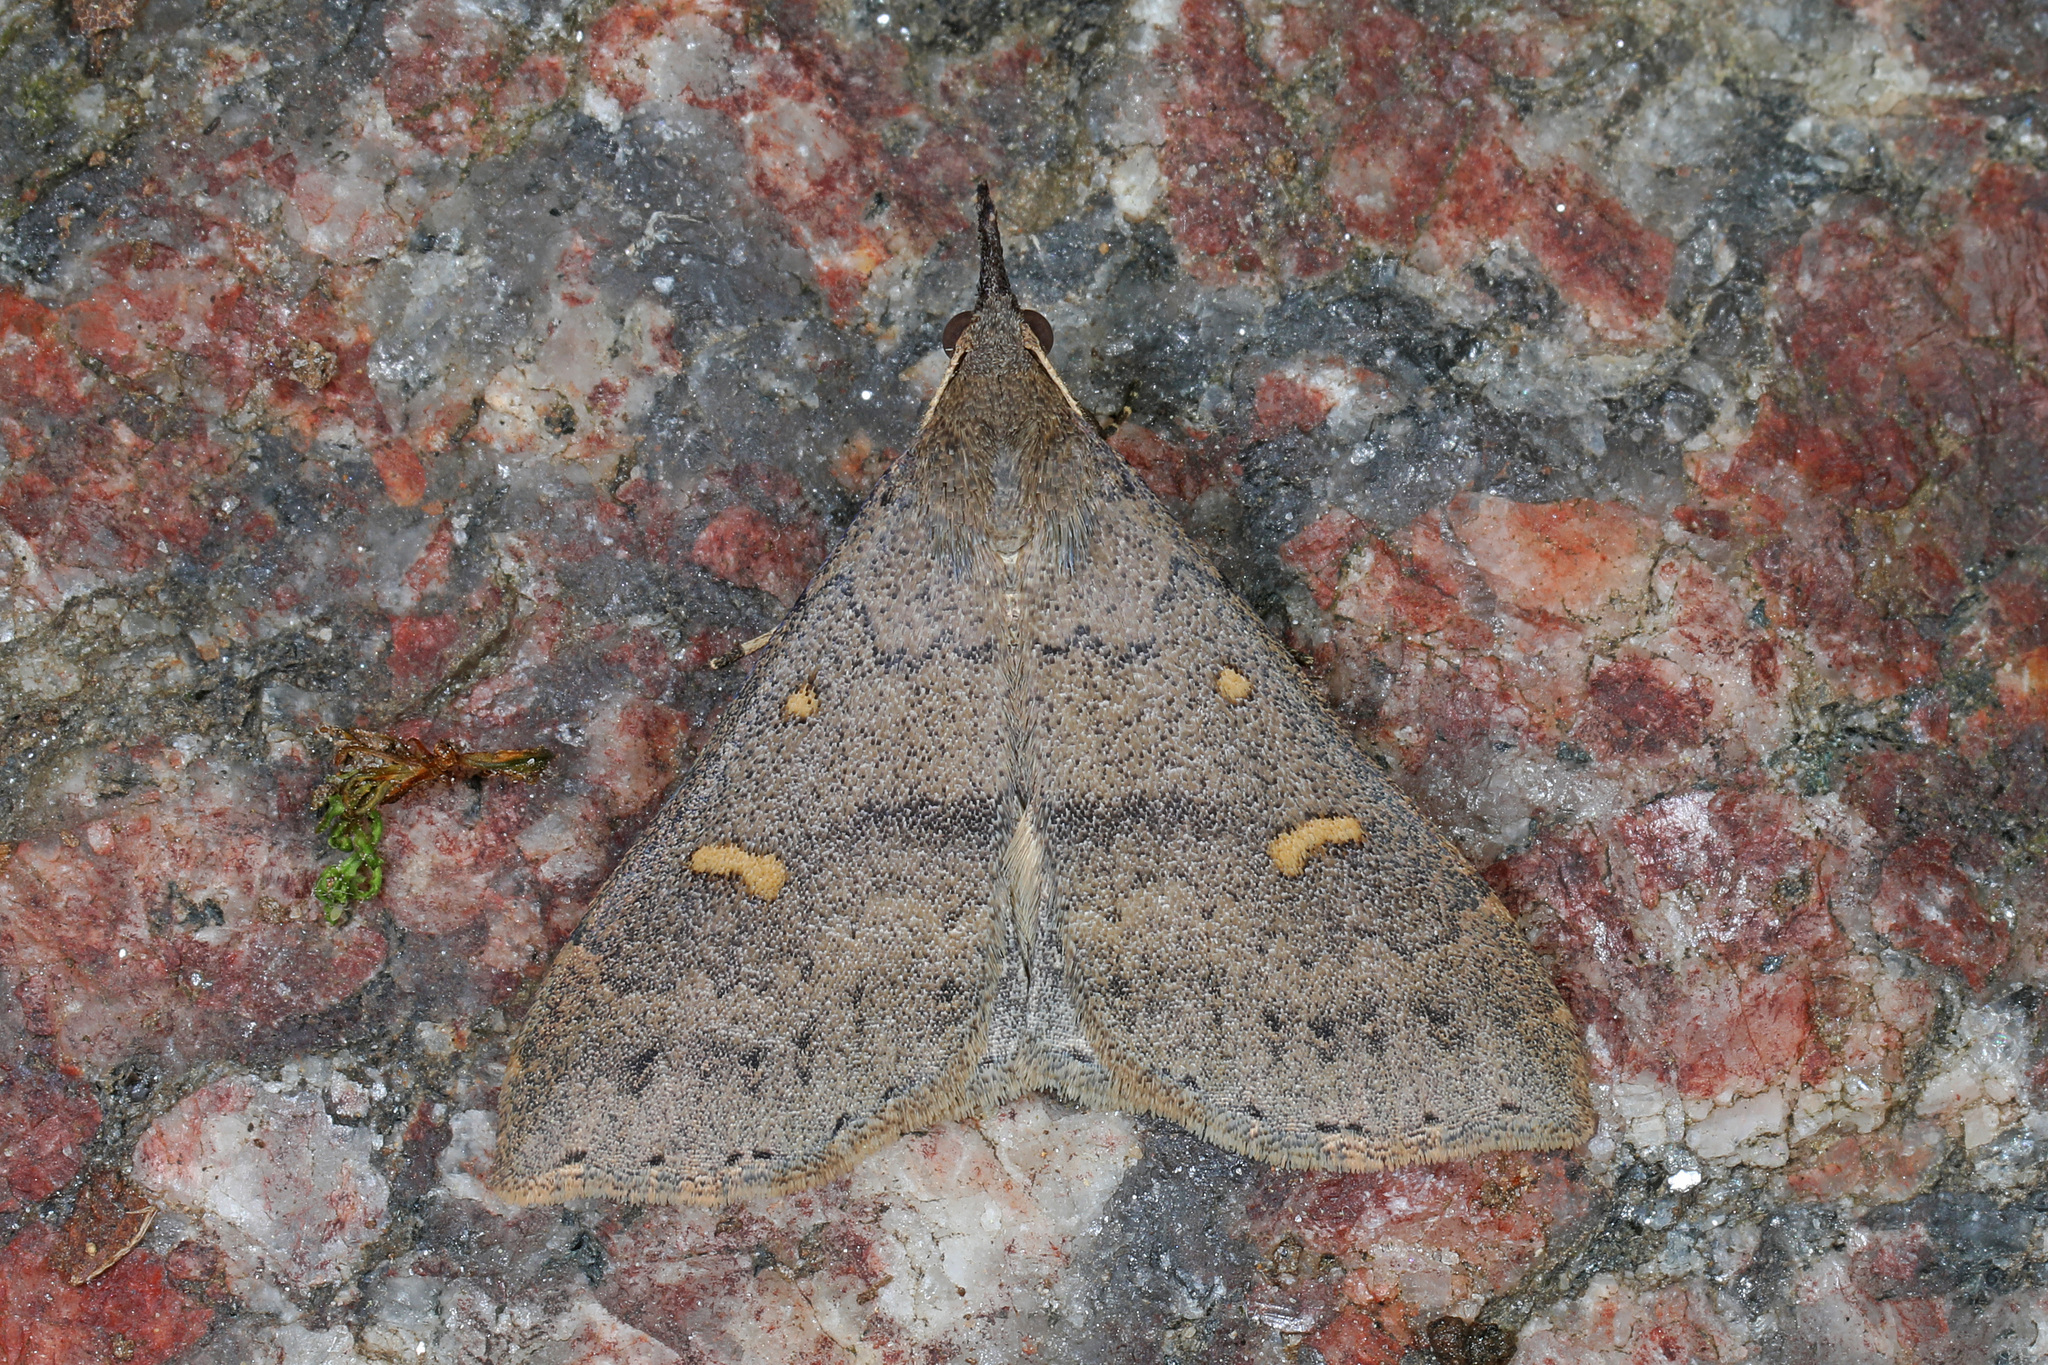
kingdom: Animalia
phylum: Arthropoda
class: Insecta
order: Lepidoptera
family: Erebidae
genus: Renia
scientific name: Renia adspergillus
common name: Speckled renia moth
